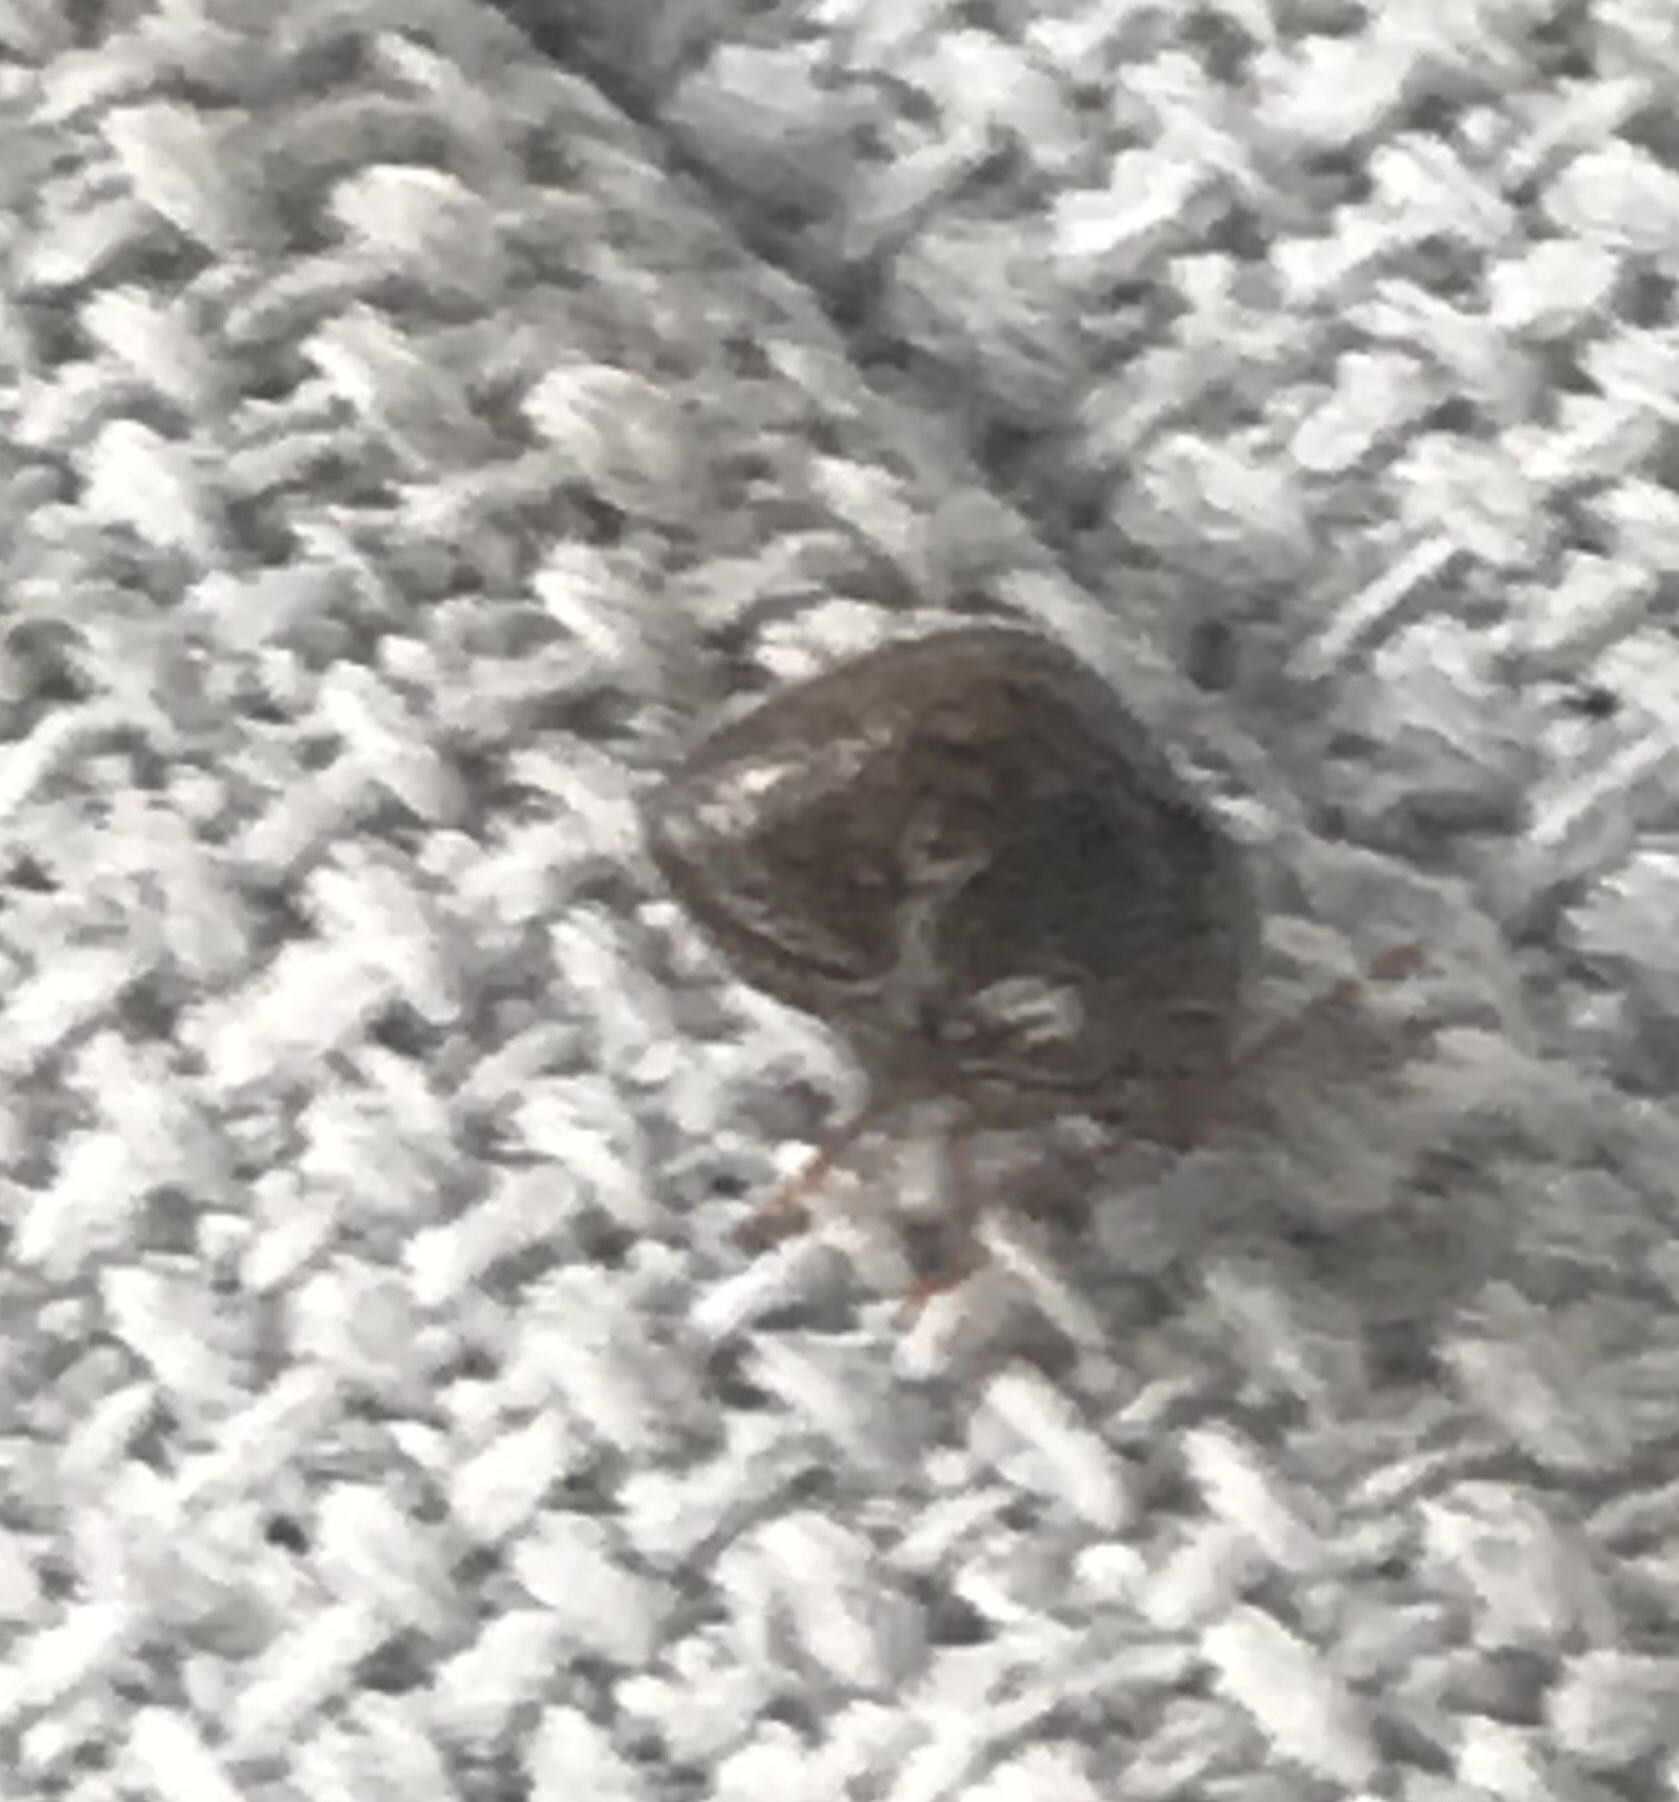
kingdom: Animalia
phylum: Arthropoda
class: Insecta
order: Hemiptera
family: Plataspidae
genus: Megacopta
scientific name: Megacopta cribraria
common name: Bean plataspid
